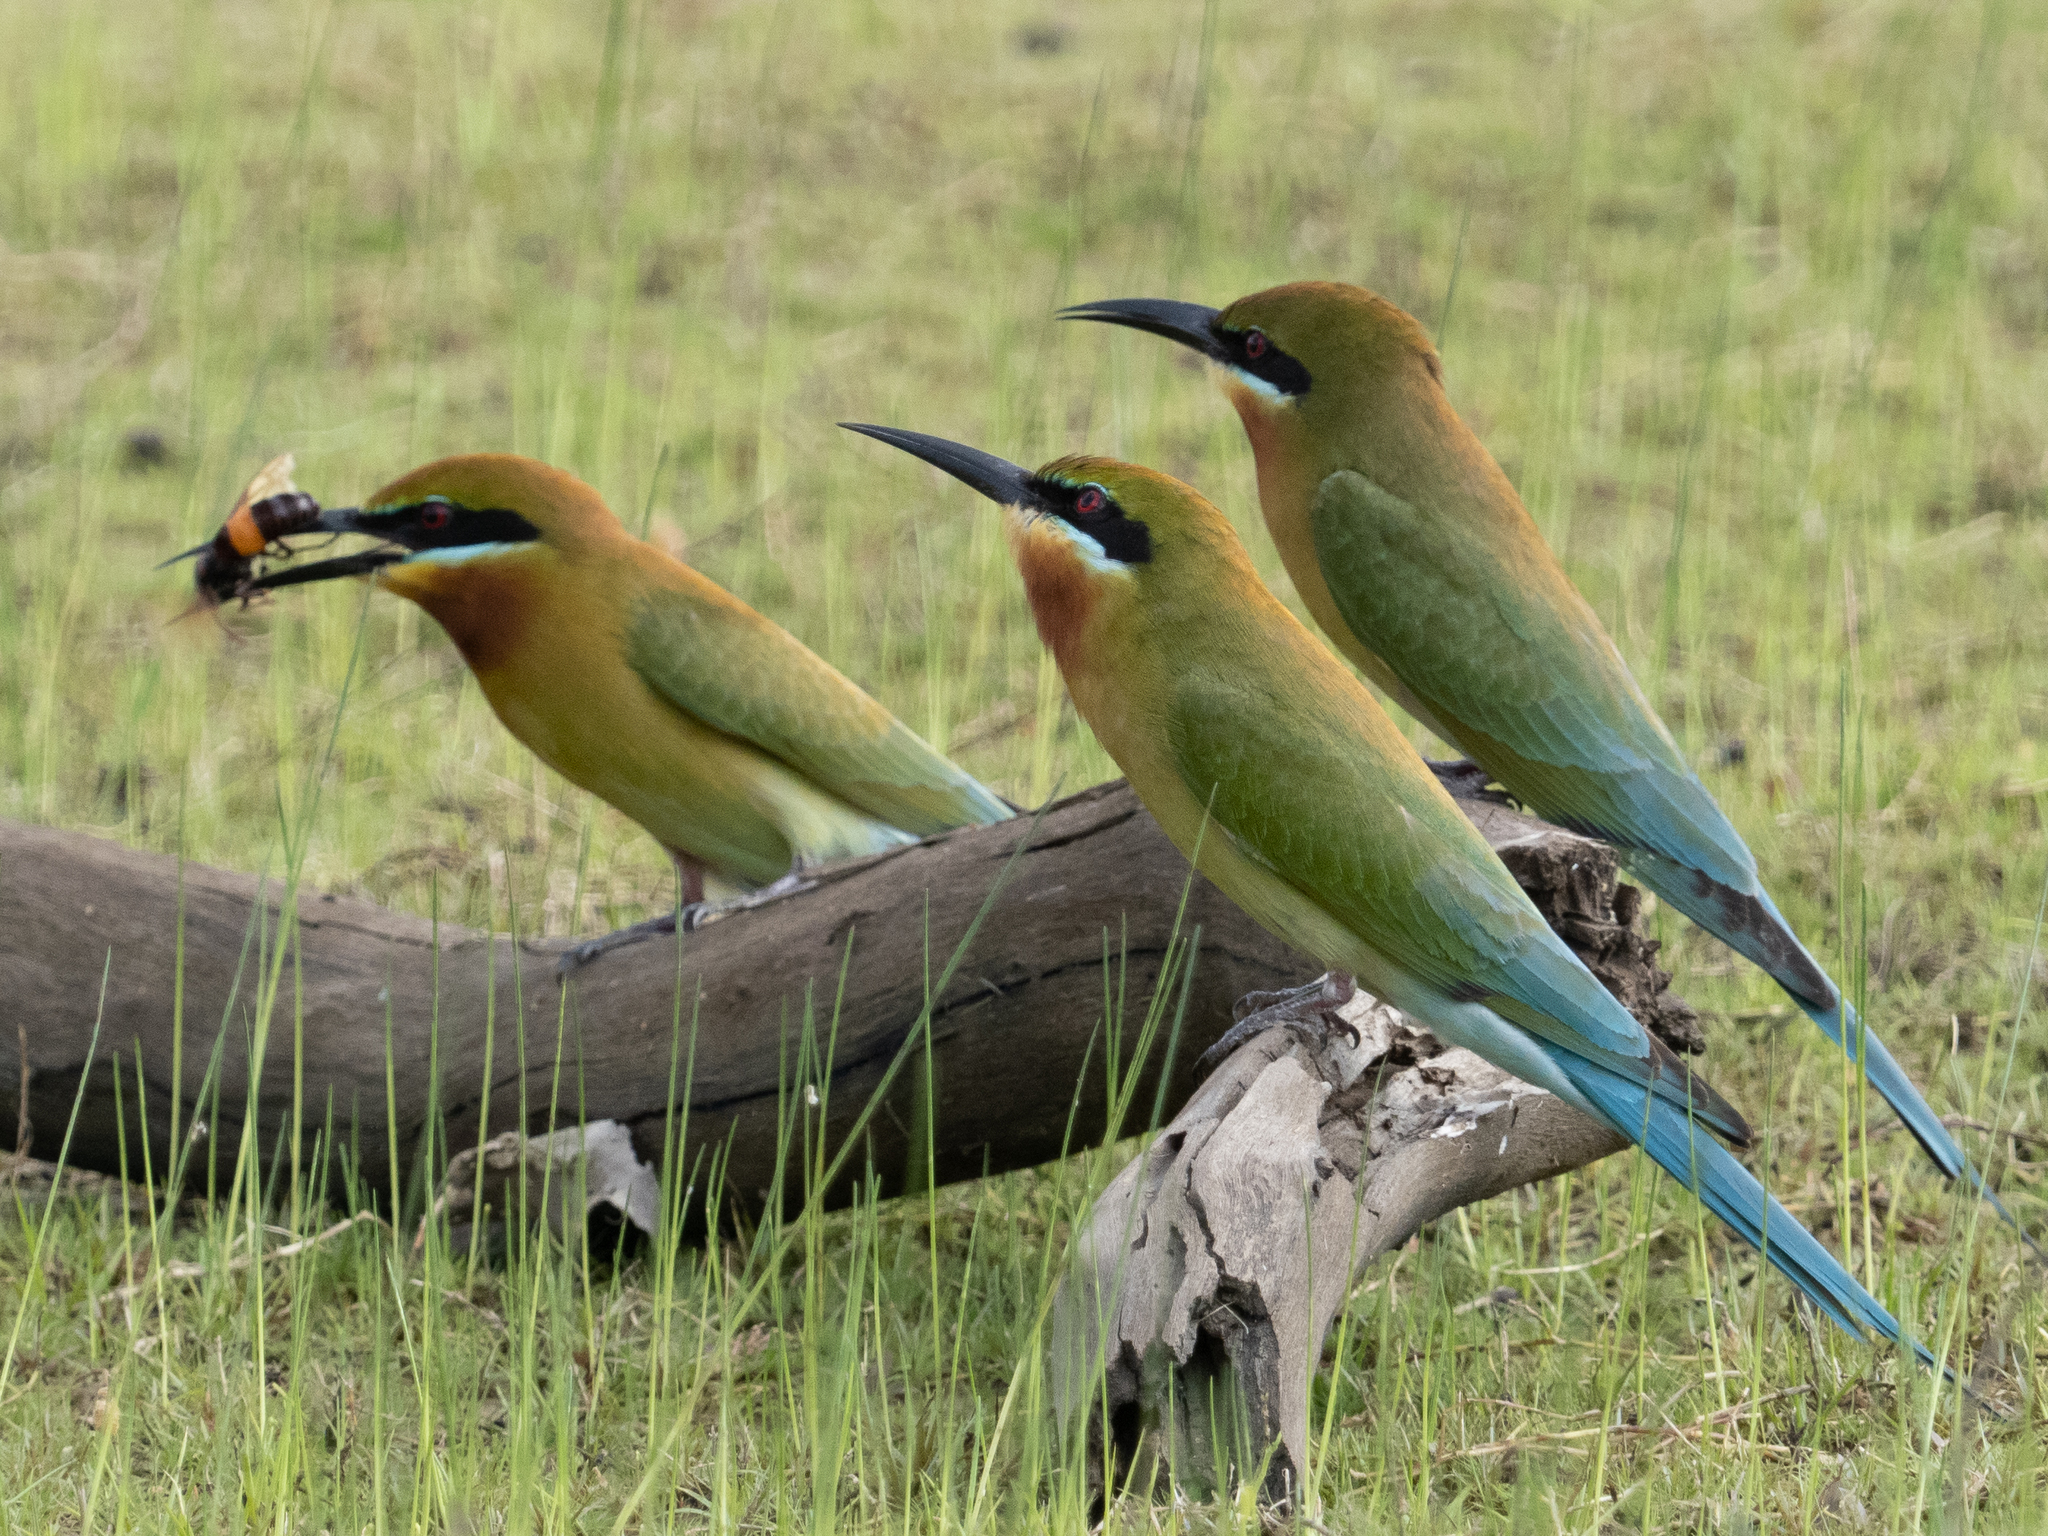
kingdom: Animalia
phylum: Chordata
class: Aves
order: Coraciiformes
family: Meropidae
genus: Merops
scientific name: Merops philippinus
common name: Blue-tailed bee-eater
